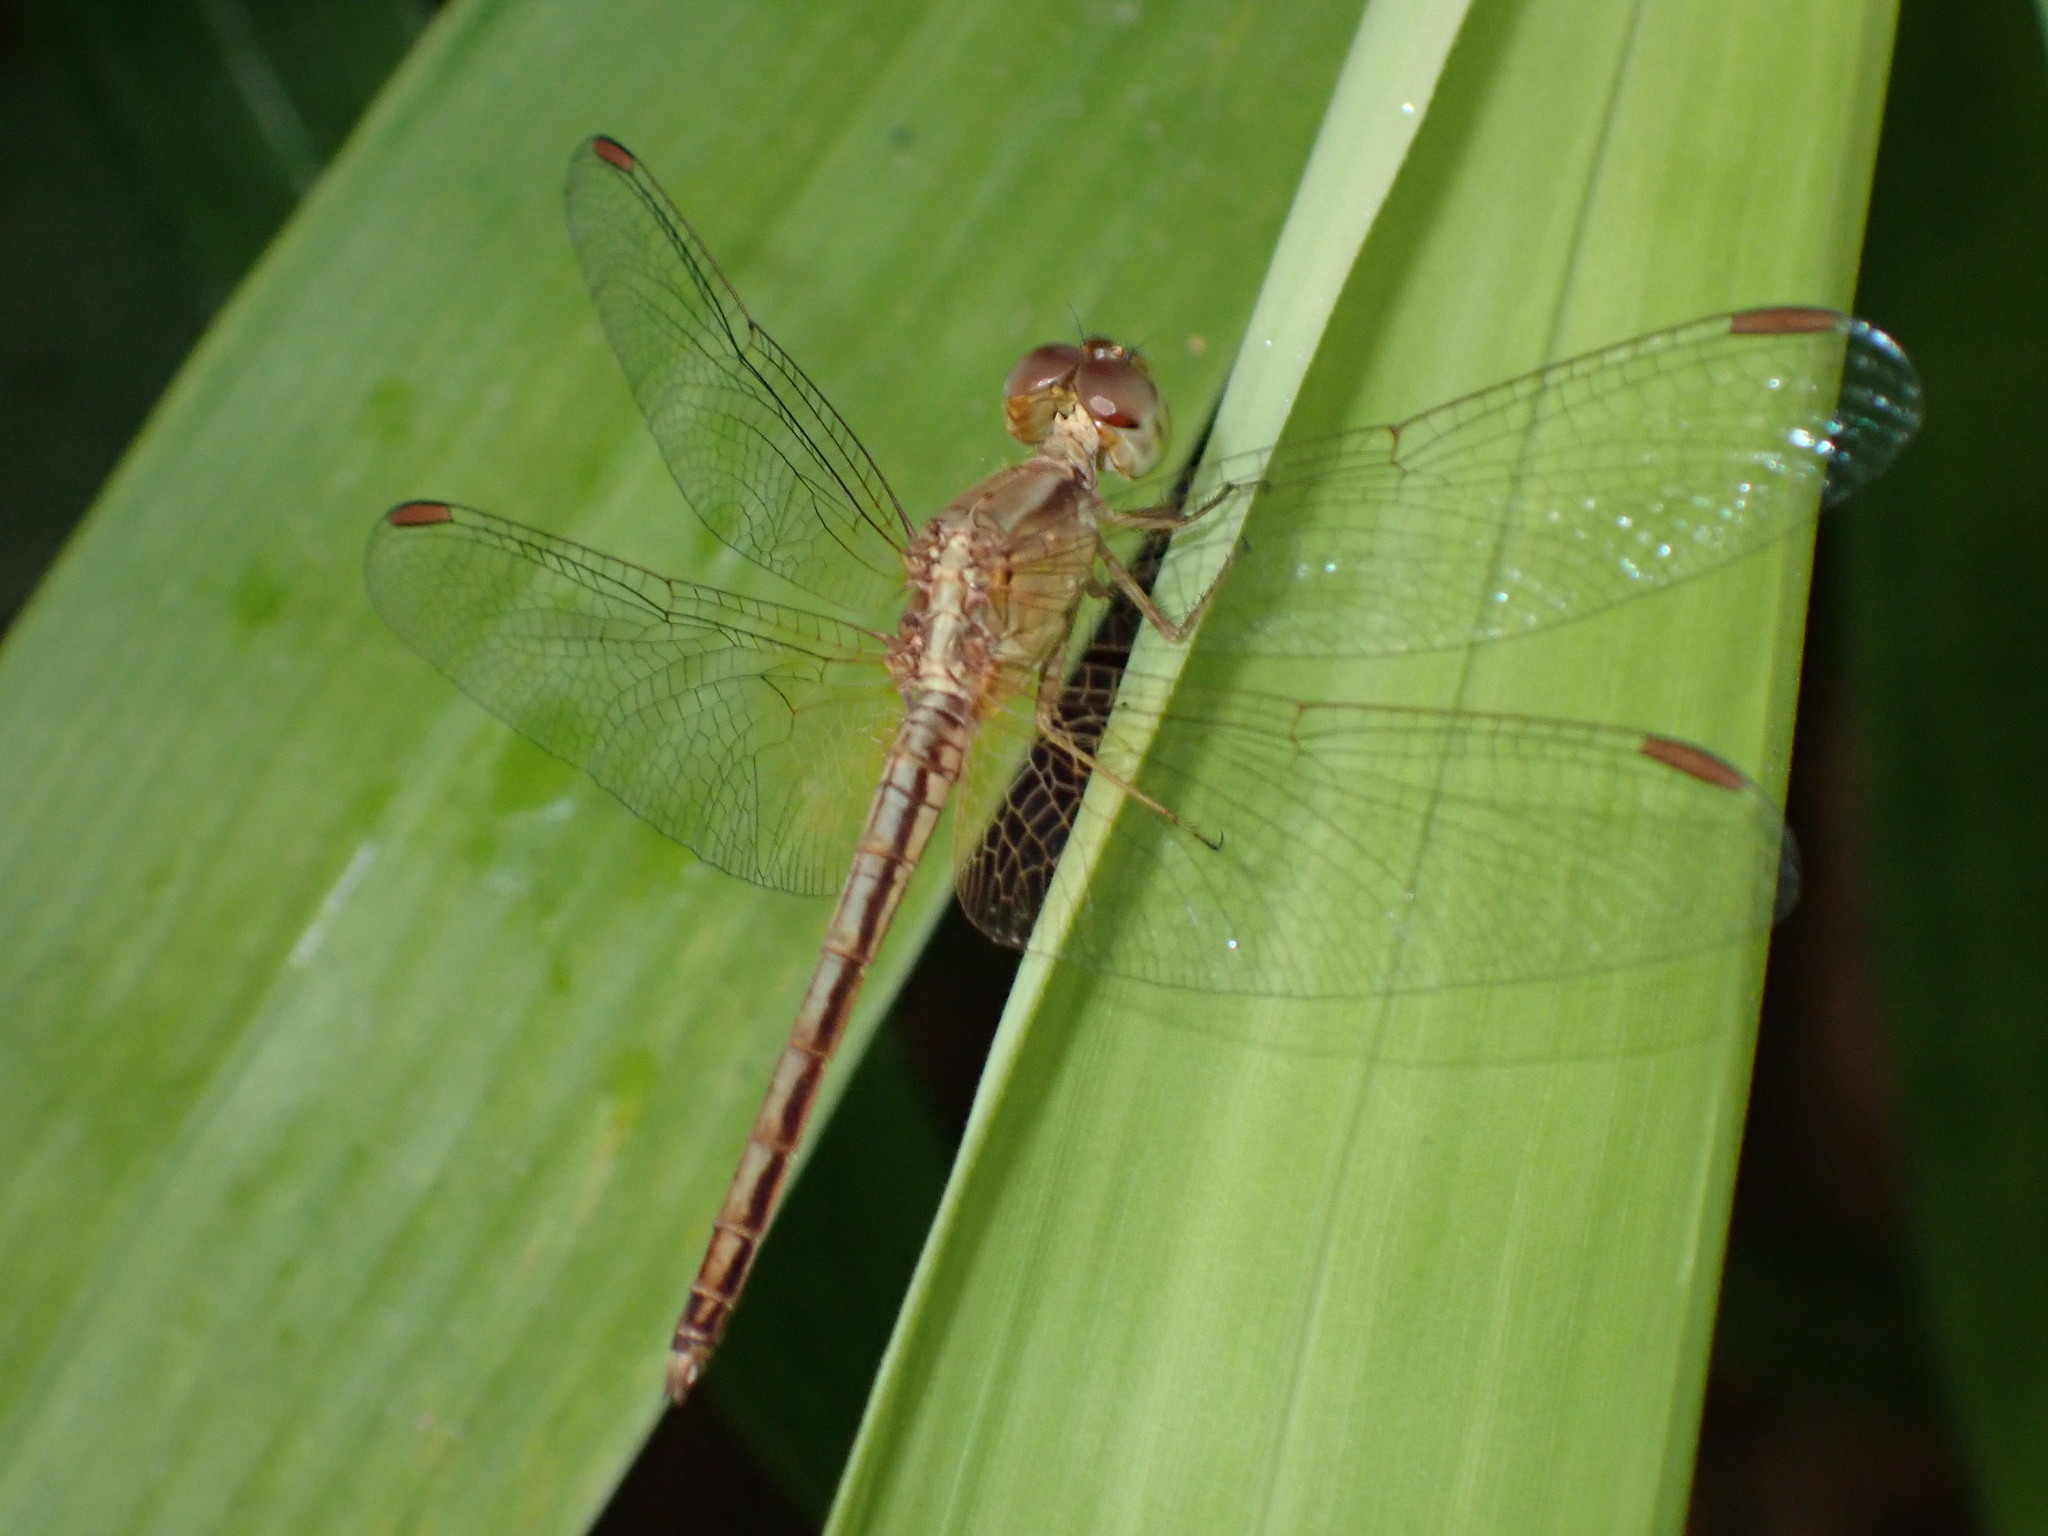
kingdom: Animalia
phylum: Arthropoda
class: Insecta
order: Odonata
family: Libellulidae
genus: Neurothemis
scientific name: Neurothemis intermedia
